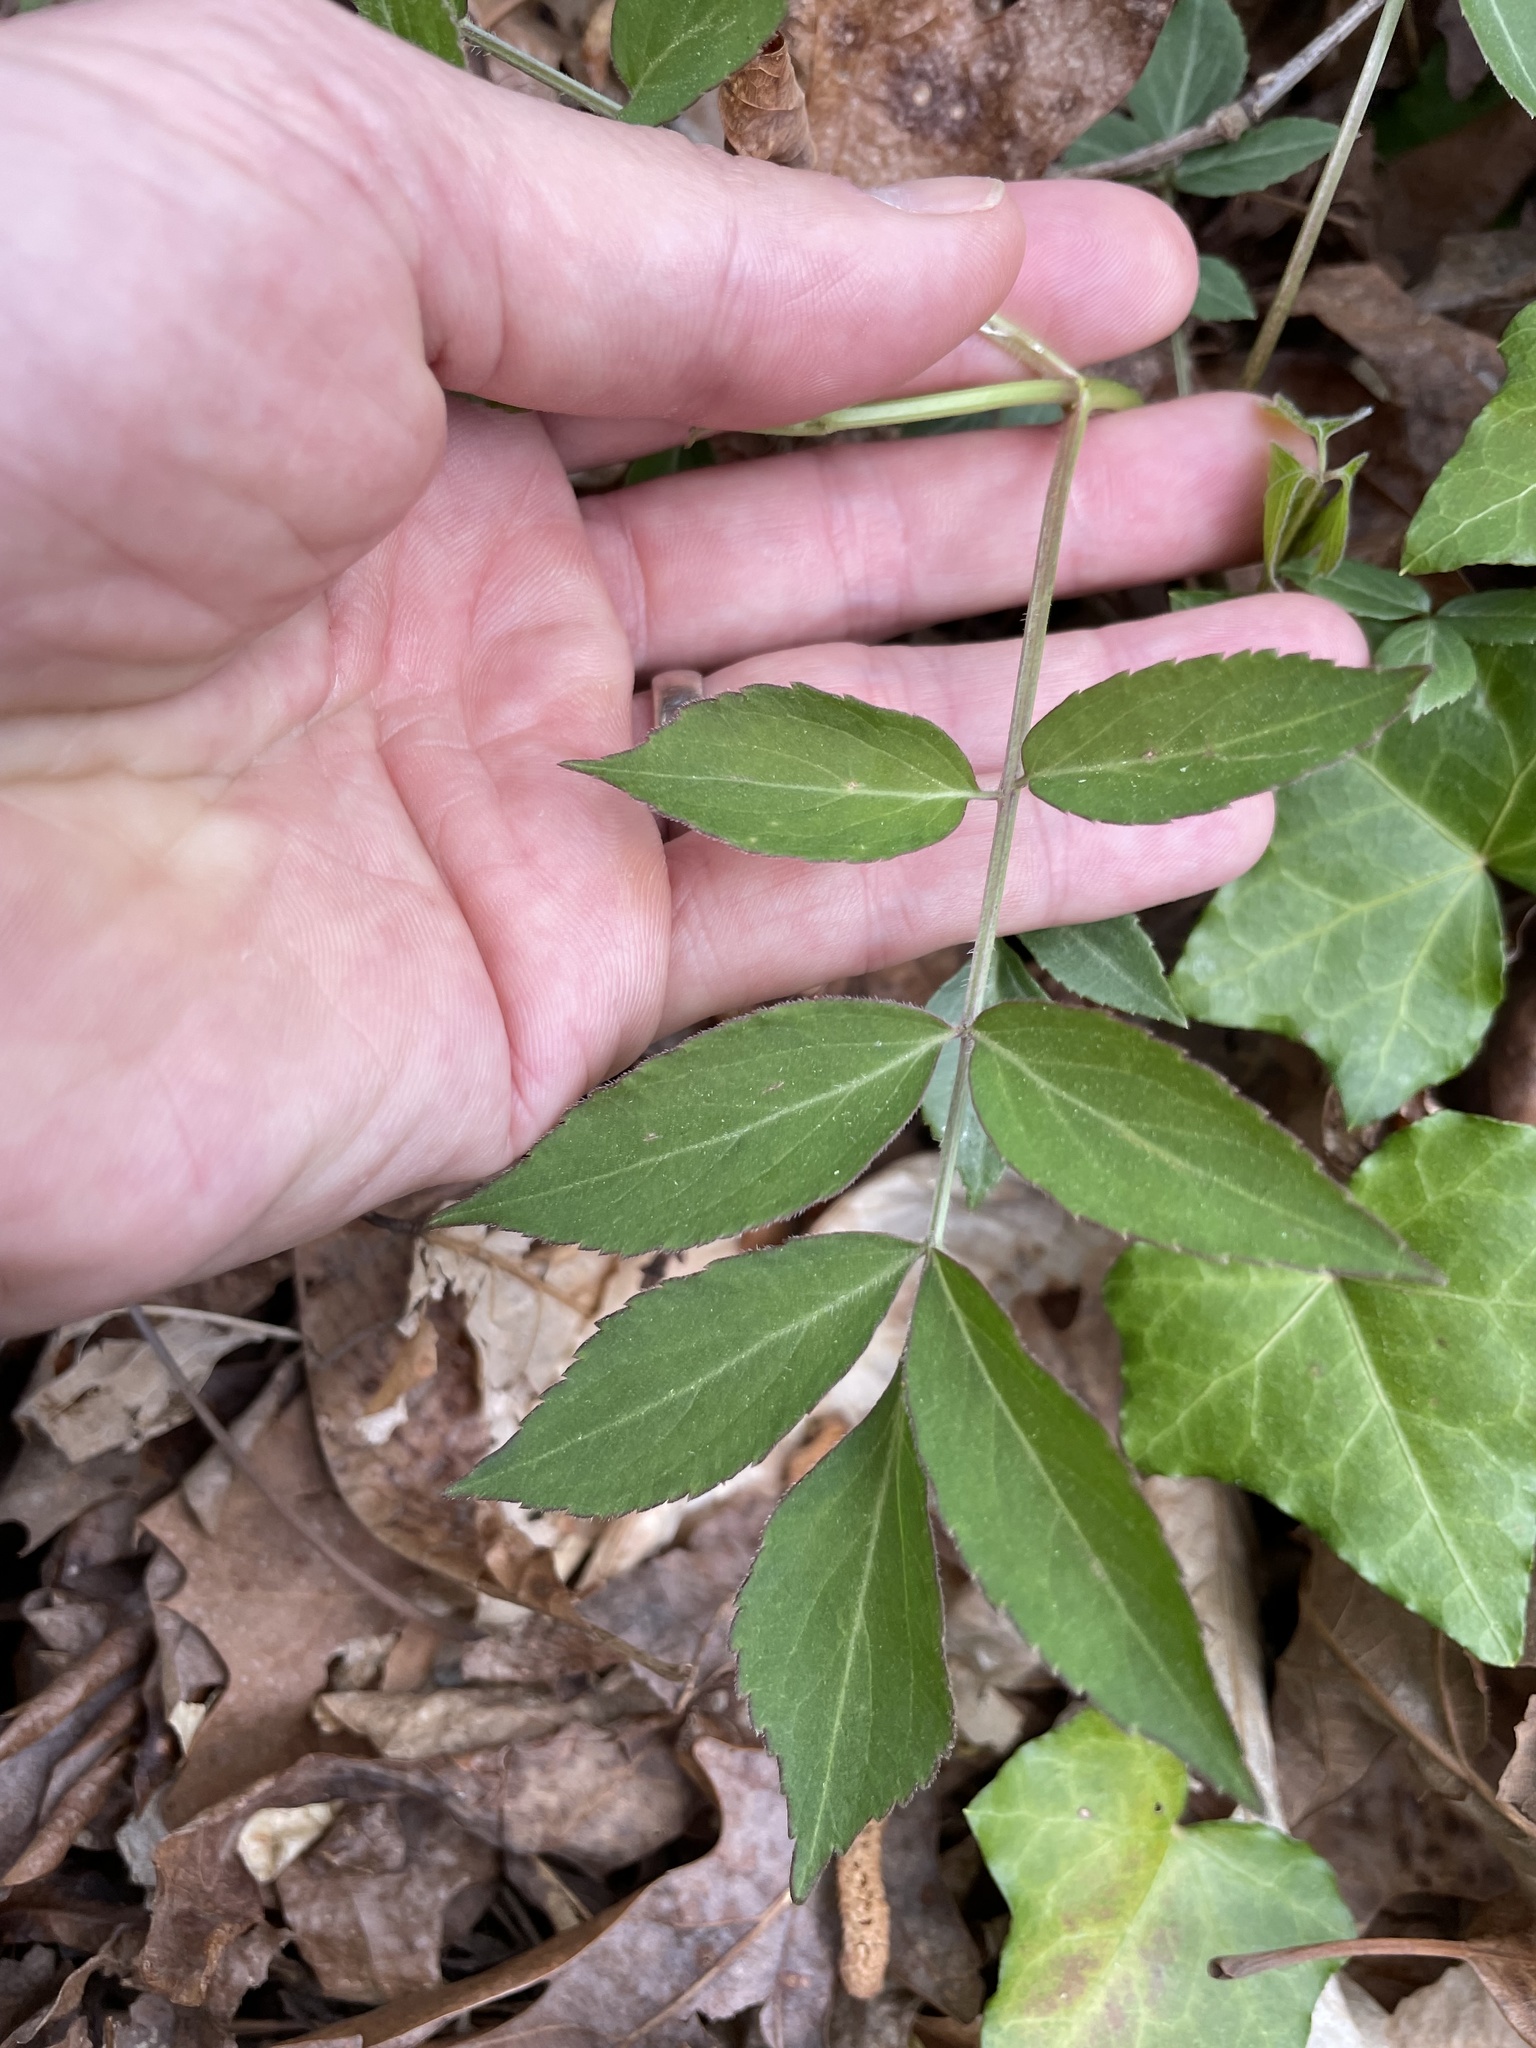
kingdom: Plantae
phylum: Tracheophyta
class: Magnoliopsida
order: Dipsacales
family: Viburnaceae
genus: Sambucus
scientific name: Sambucus canadensis
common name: American elder
